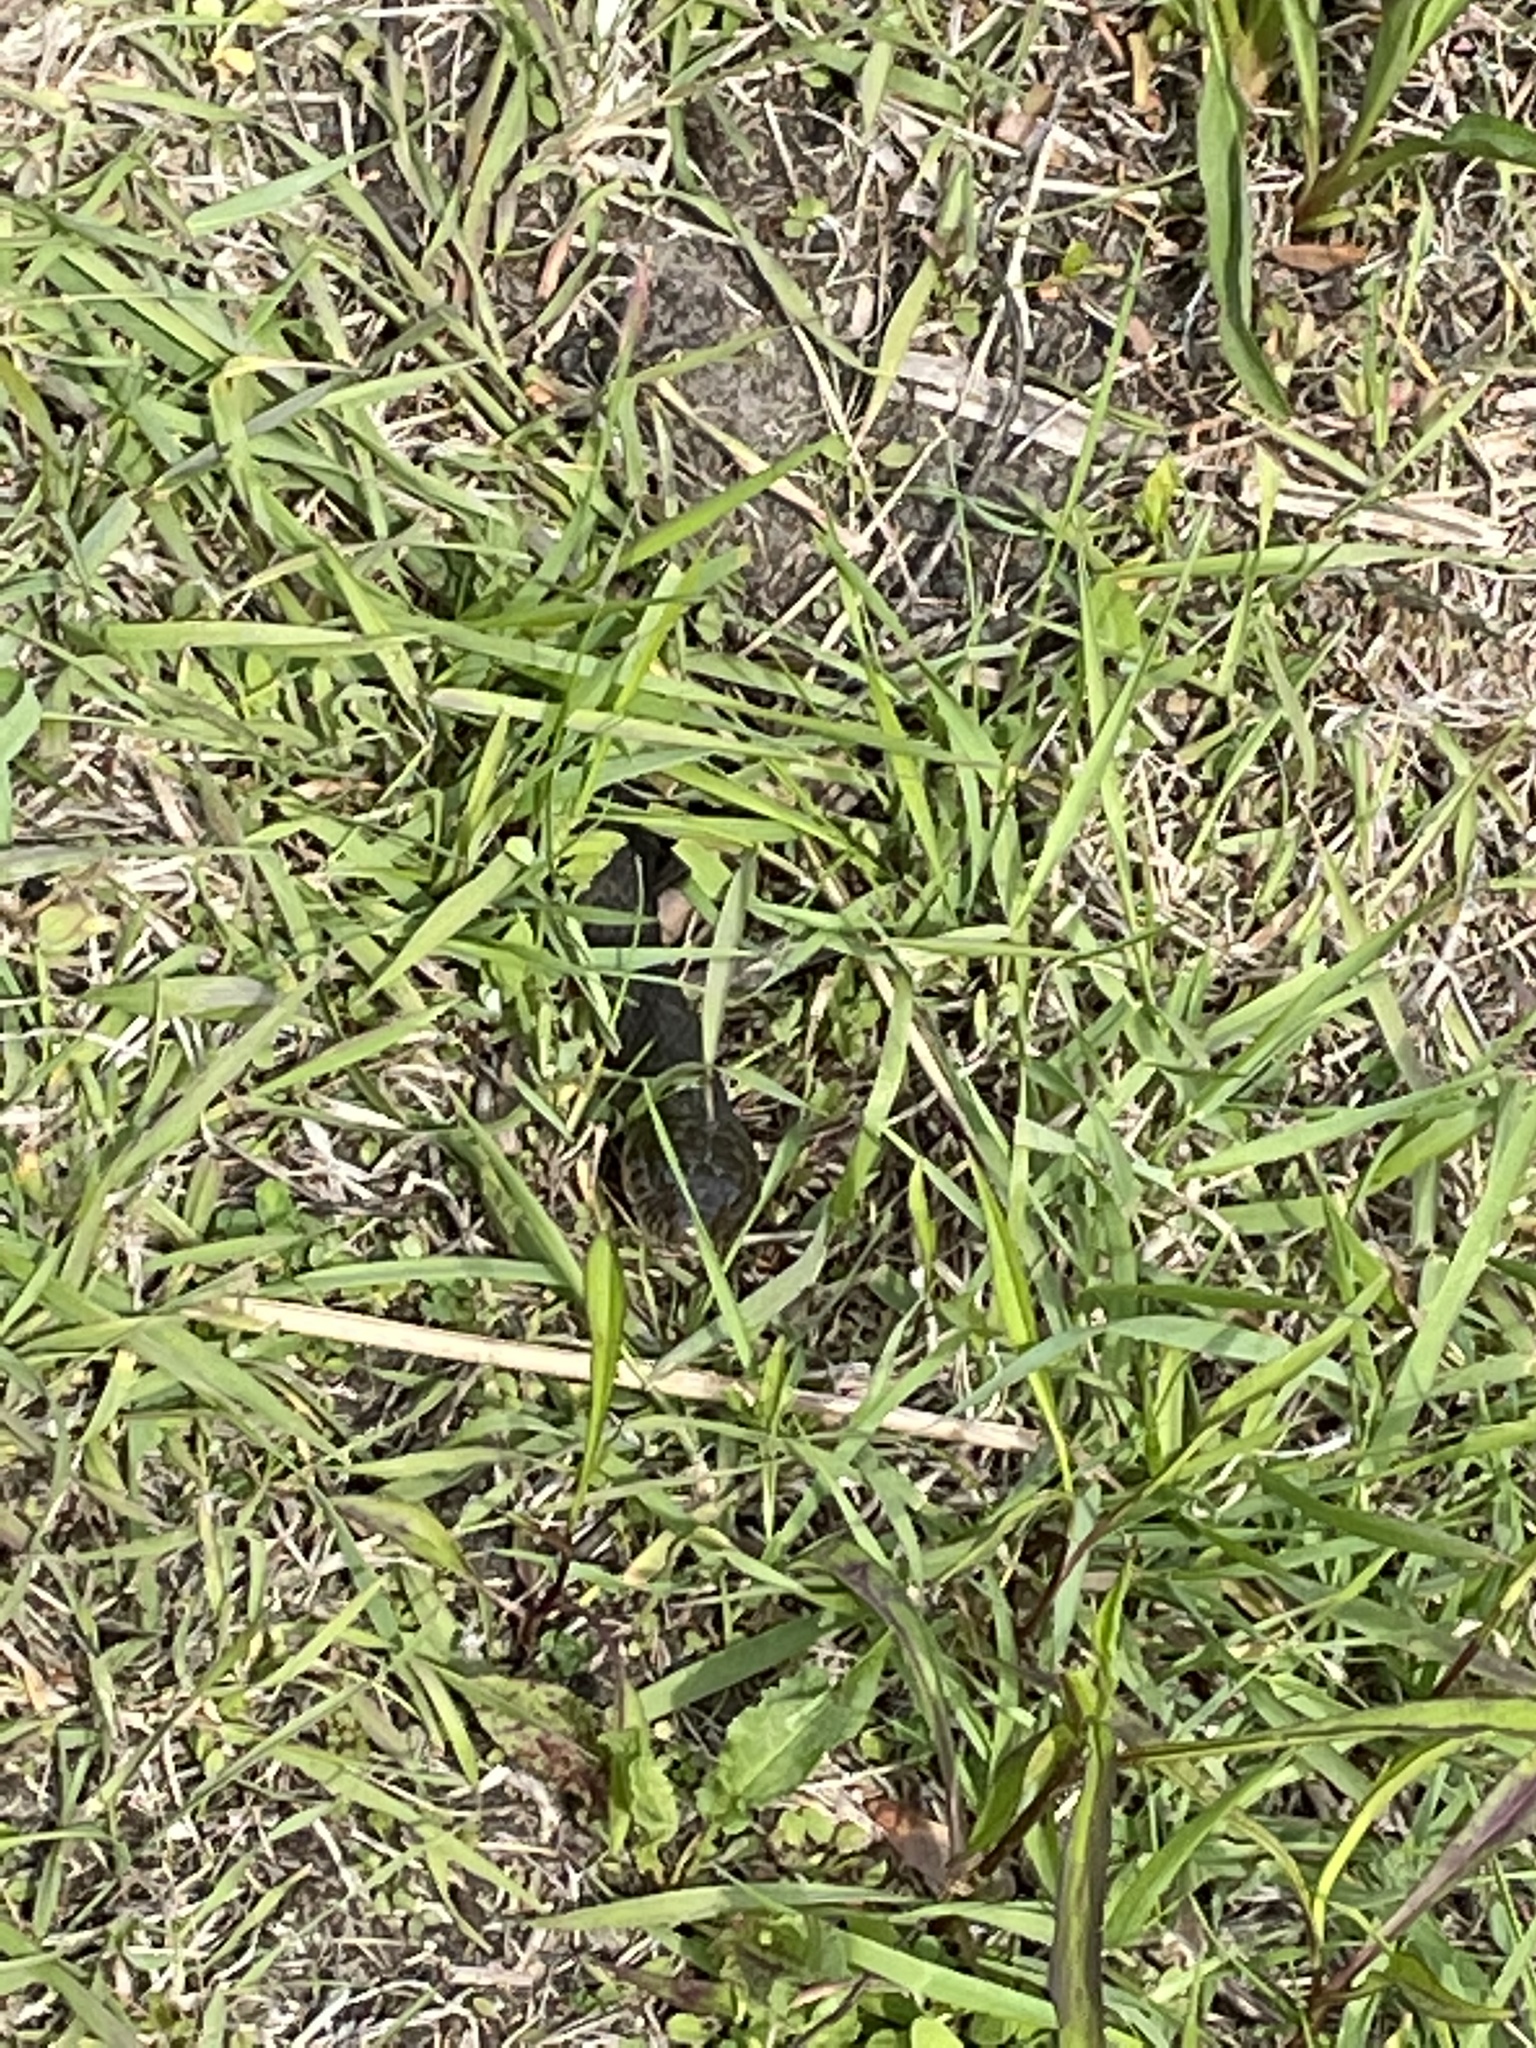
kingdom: Animalia
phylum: Chordata
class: Squamata
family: Colubridae
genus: Nerodia
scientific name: Nerodia sipedon
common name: Northern water snake
